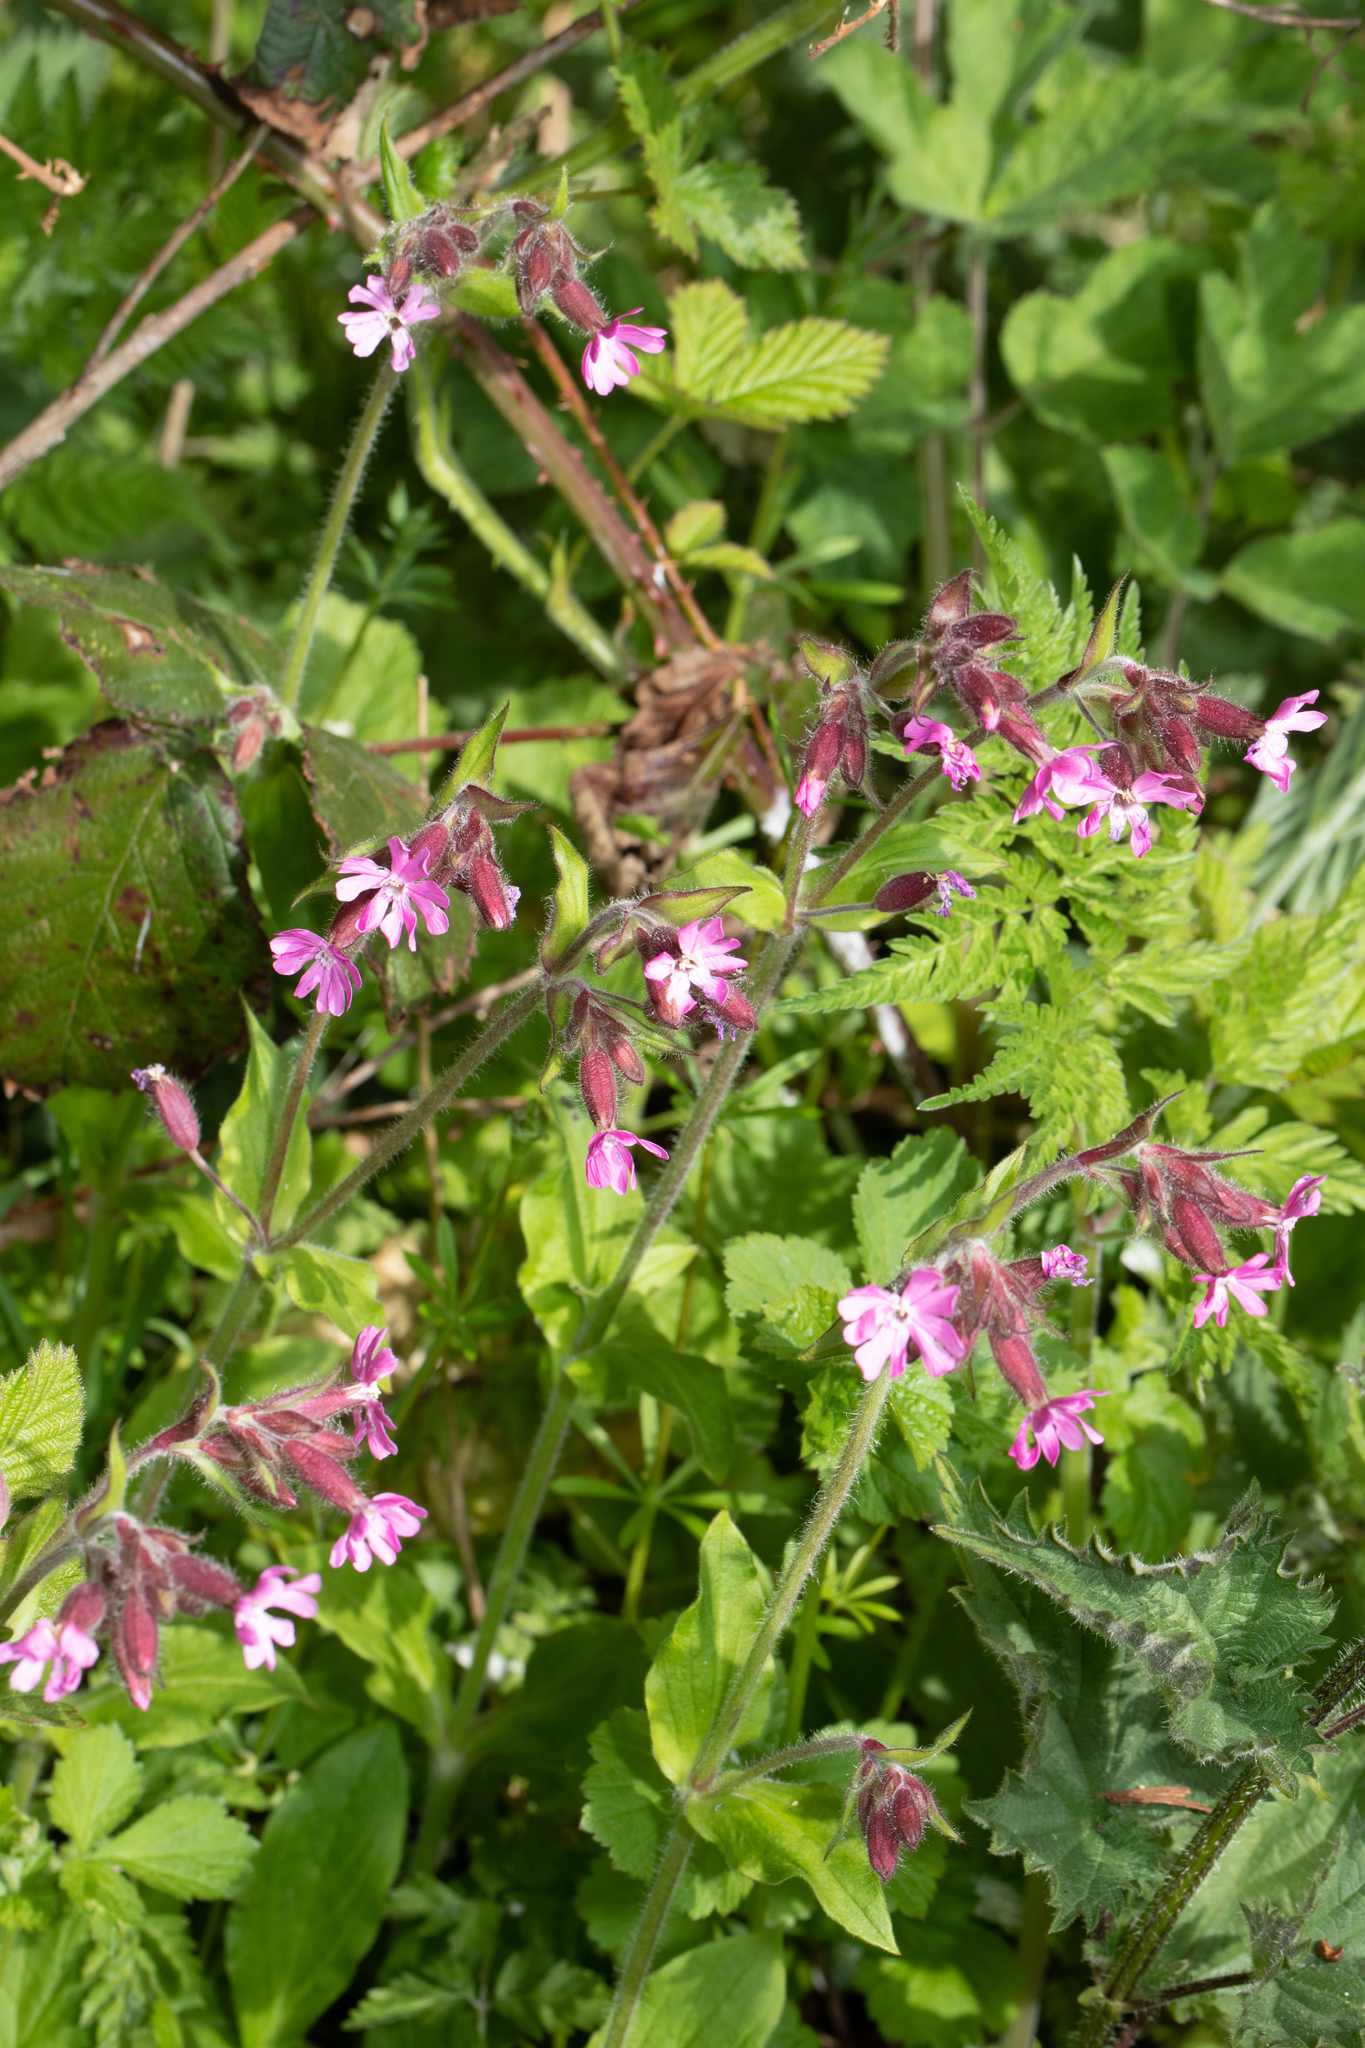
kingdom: Plantae
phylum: Tracheophyta
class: Magnoliopsida
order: Caryophyllales
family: Caryophyllaceae
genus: Silene
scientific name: Silene dioica
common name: Red campion
